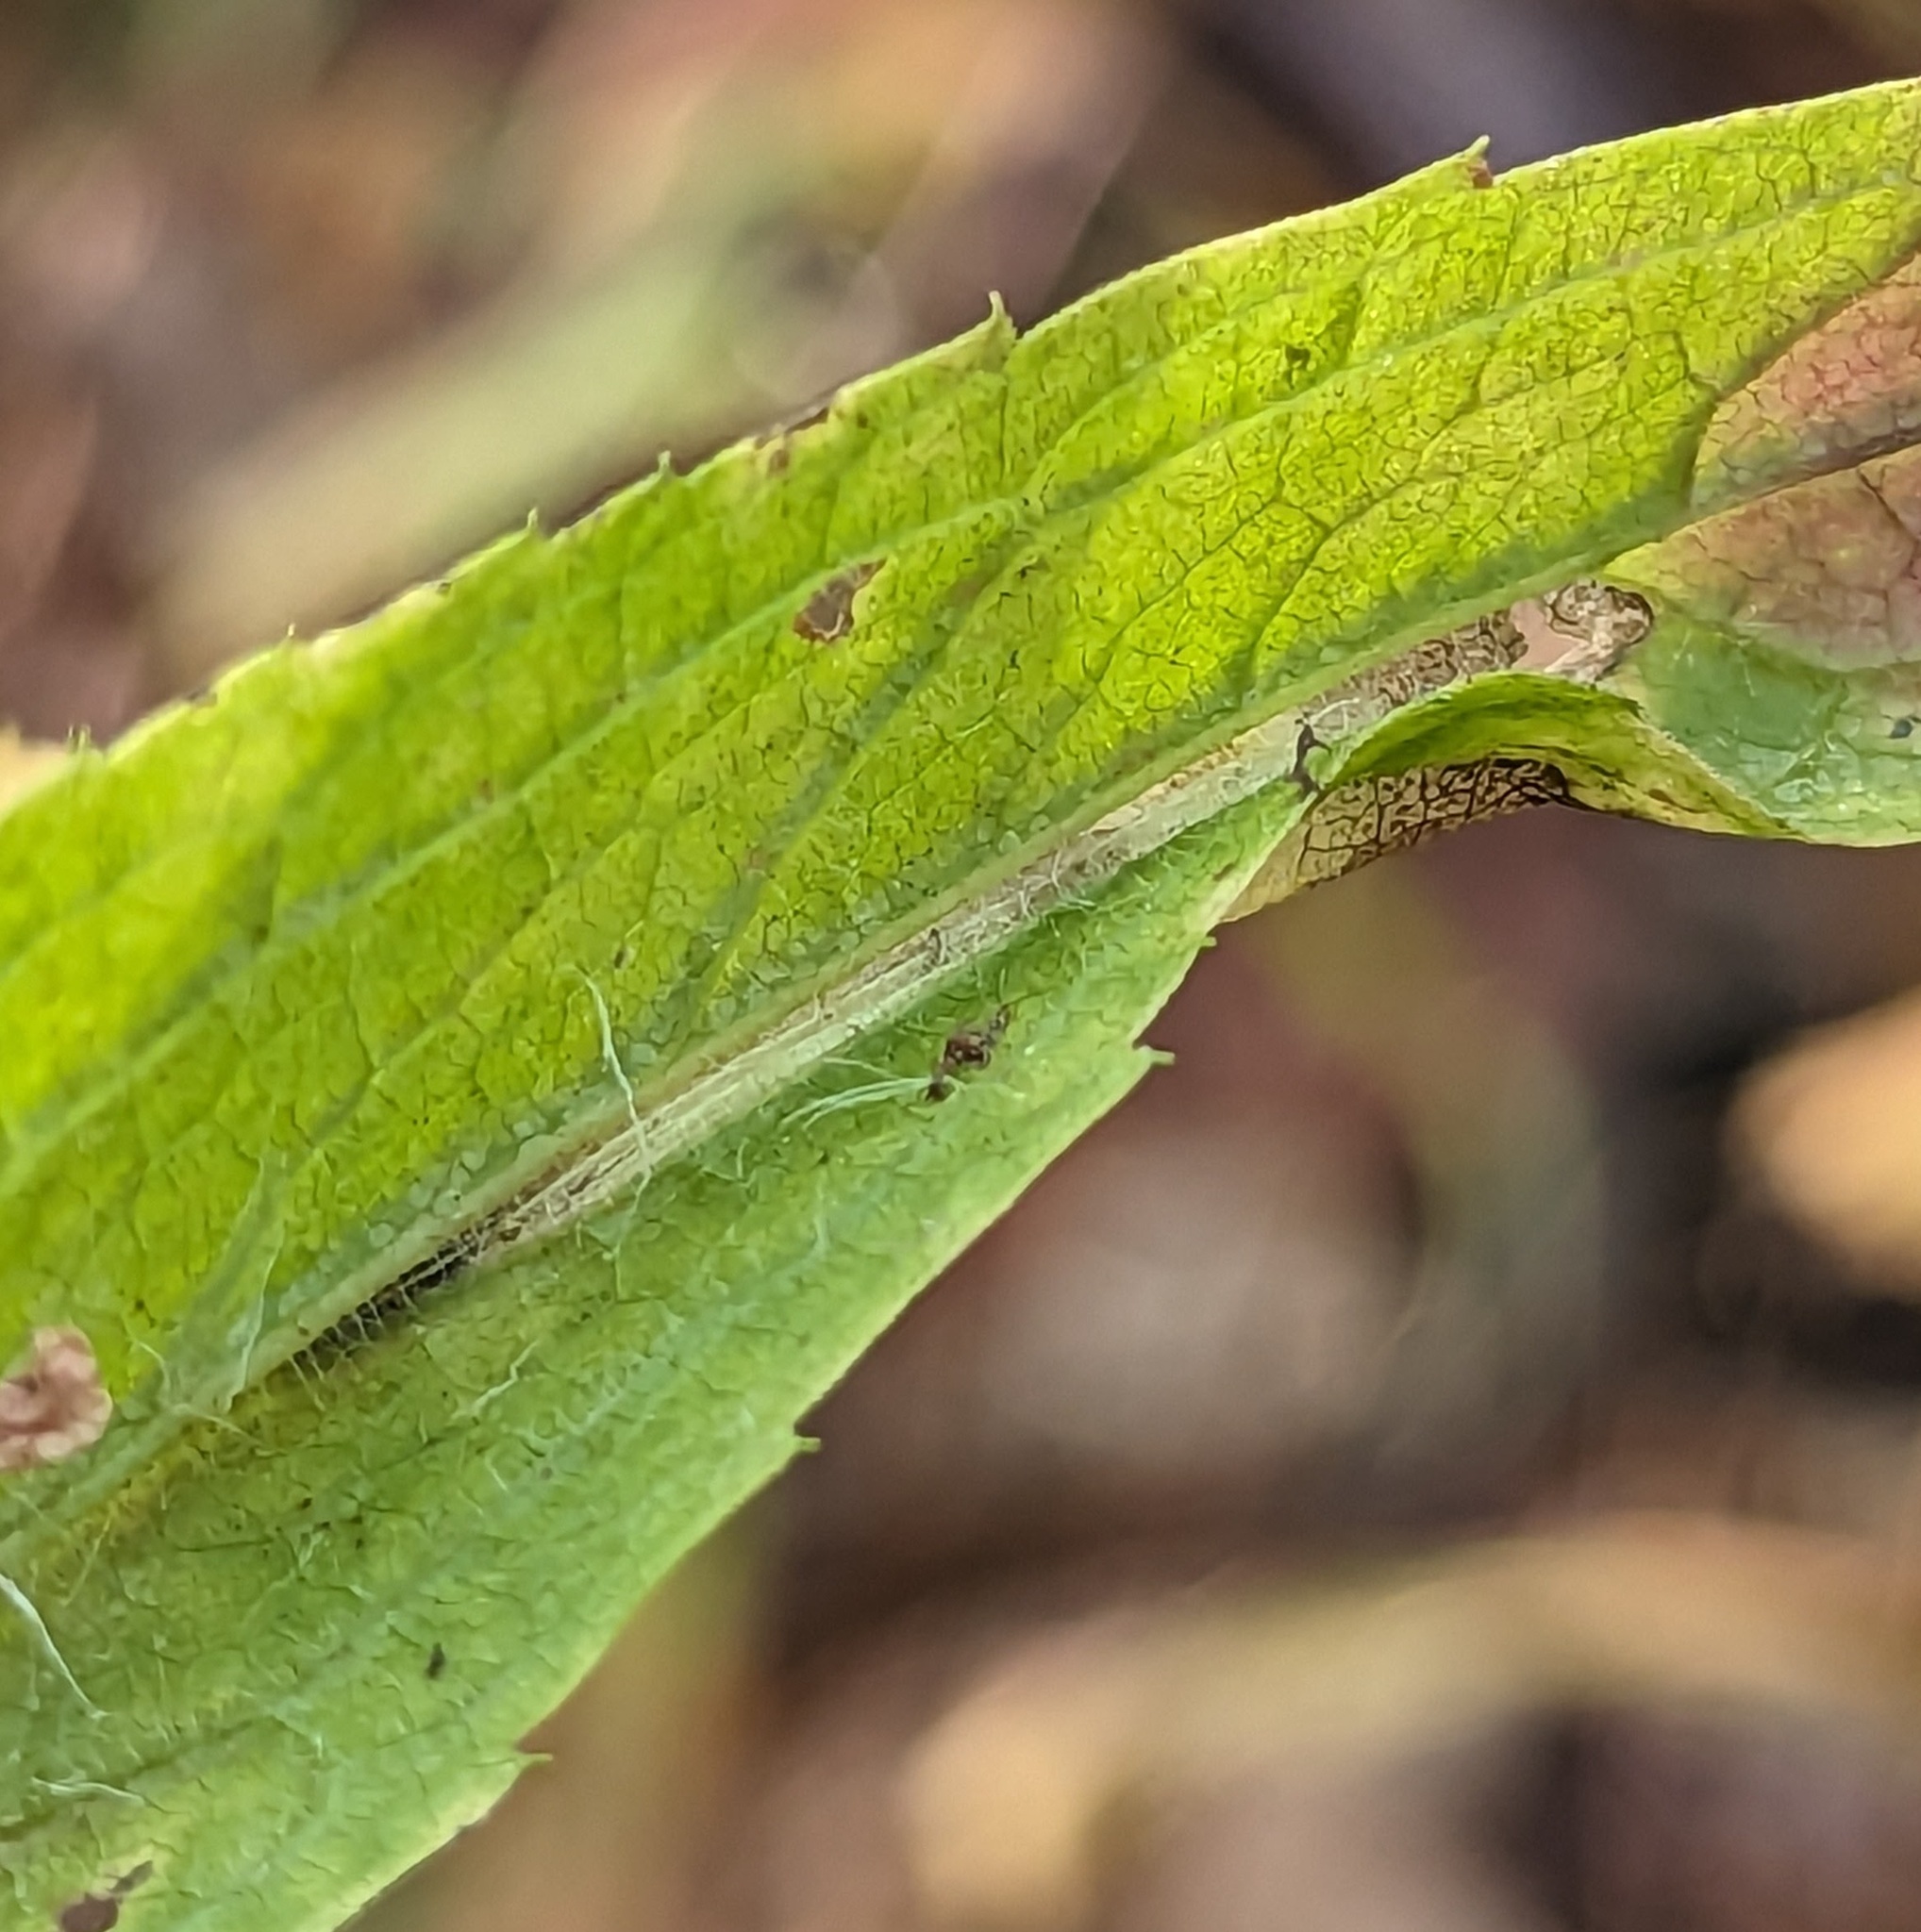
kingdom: Animalia
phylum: Arthropoda
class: Insecta
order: Lepidoptera
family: Gracillariidae
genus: Cremastobombycia
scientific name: Cremastobombycia solidaginis
